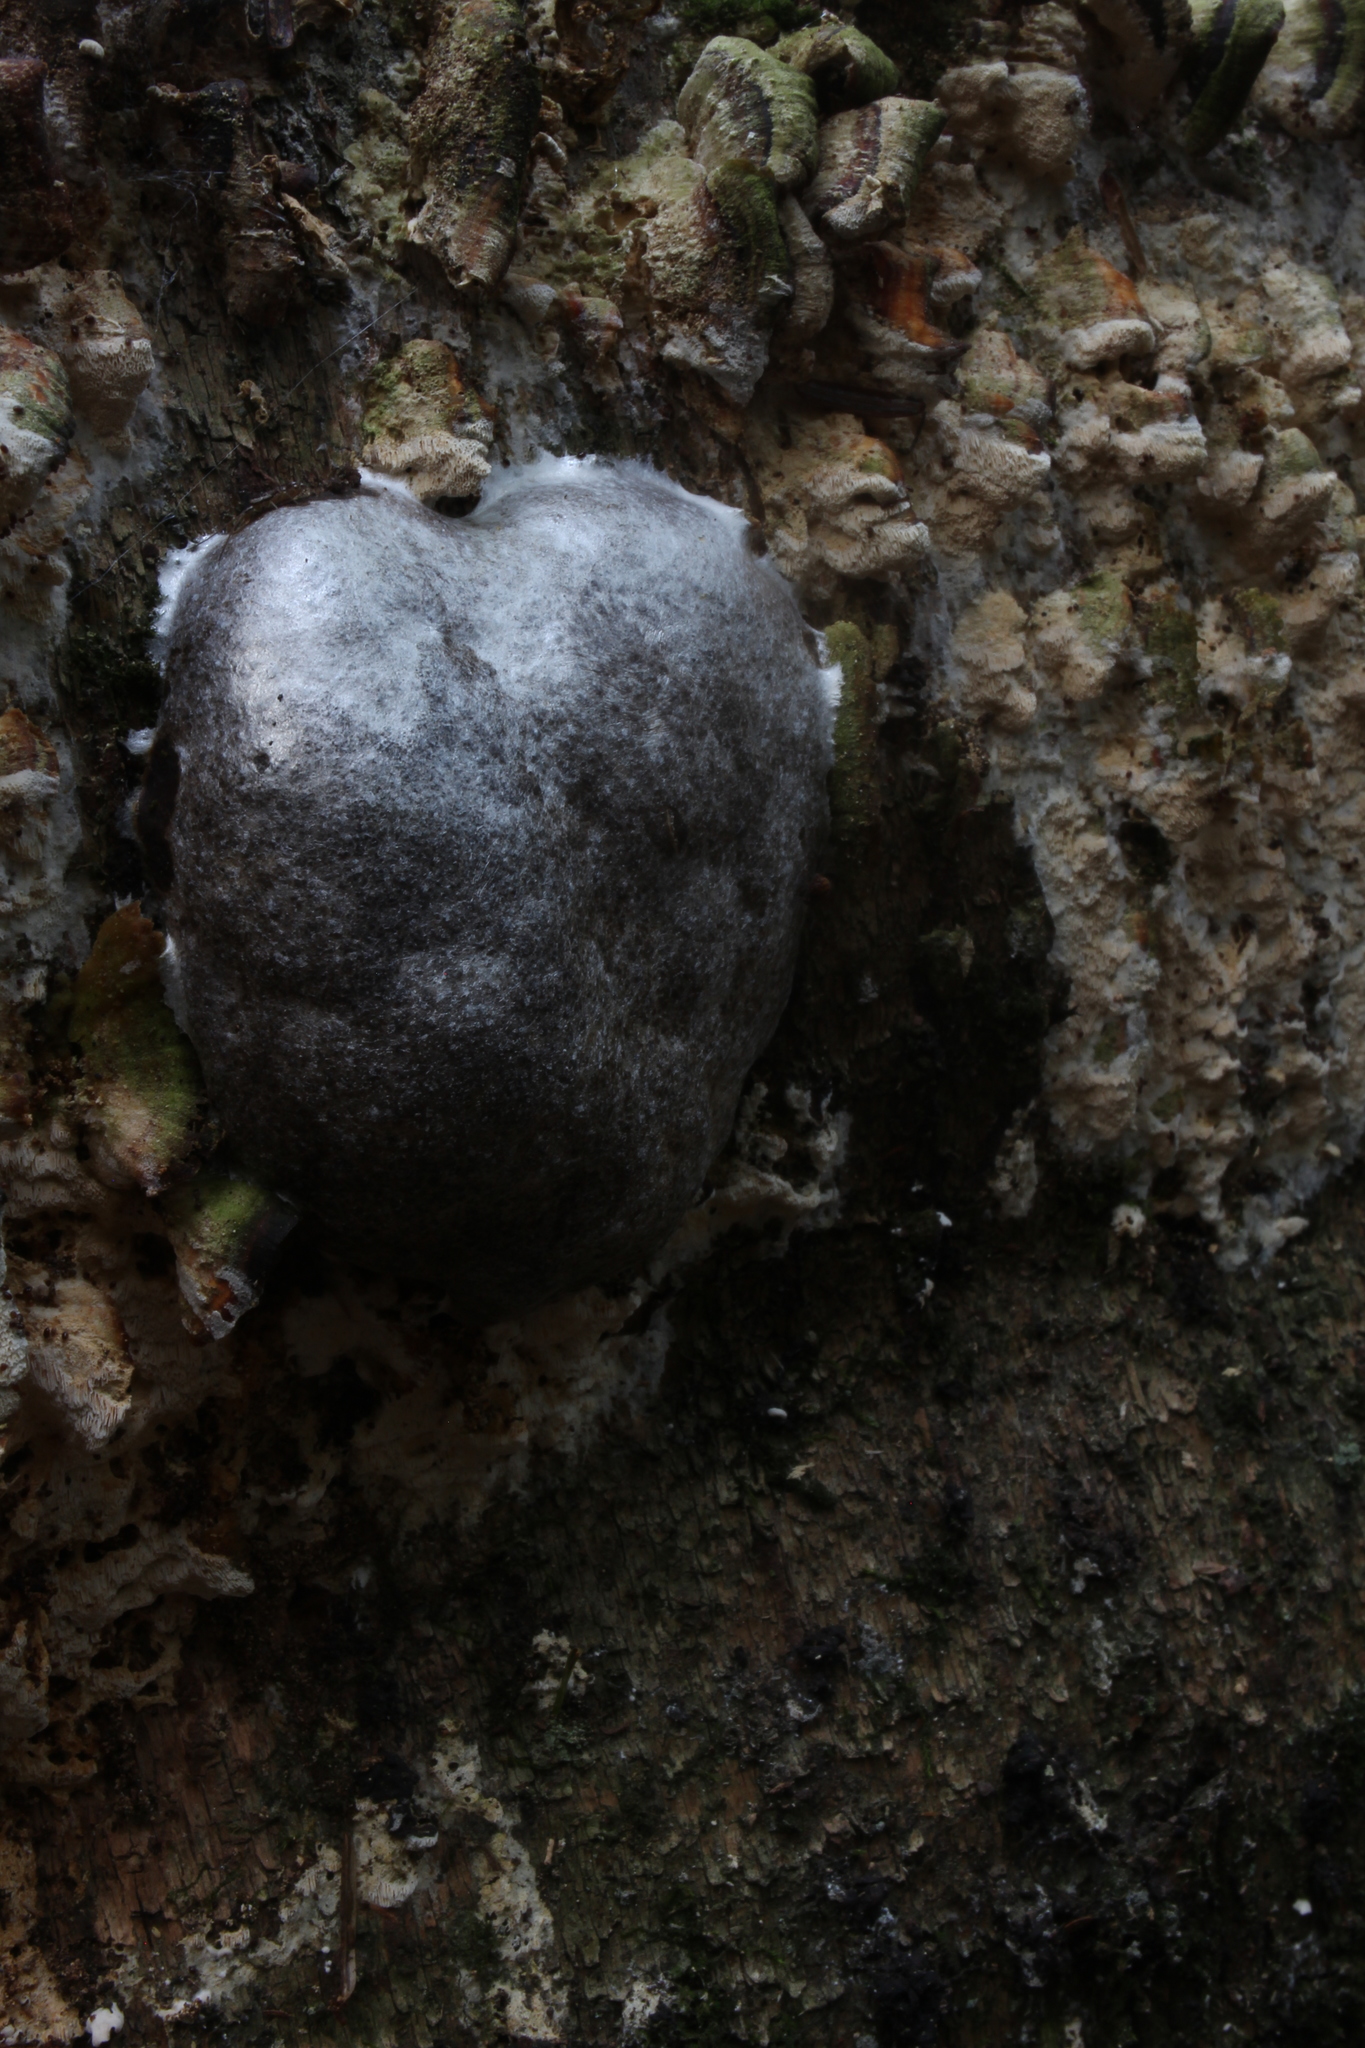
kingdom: Protozoa
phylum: Mycetozoa
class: Myxomycetes
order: Cribrariales
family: Tubiferaceae
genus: Reticularia
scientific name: Reticularia lycoperdon
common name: False puffball
